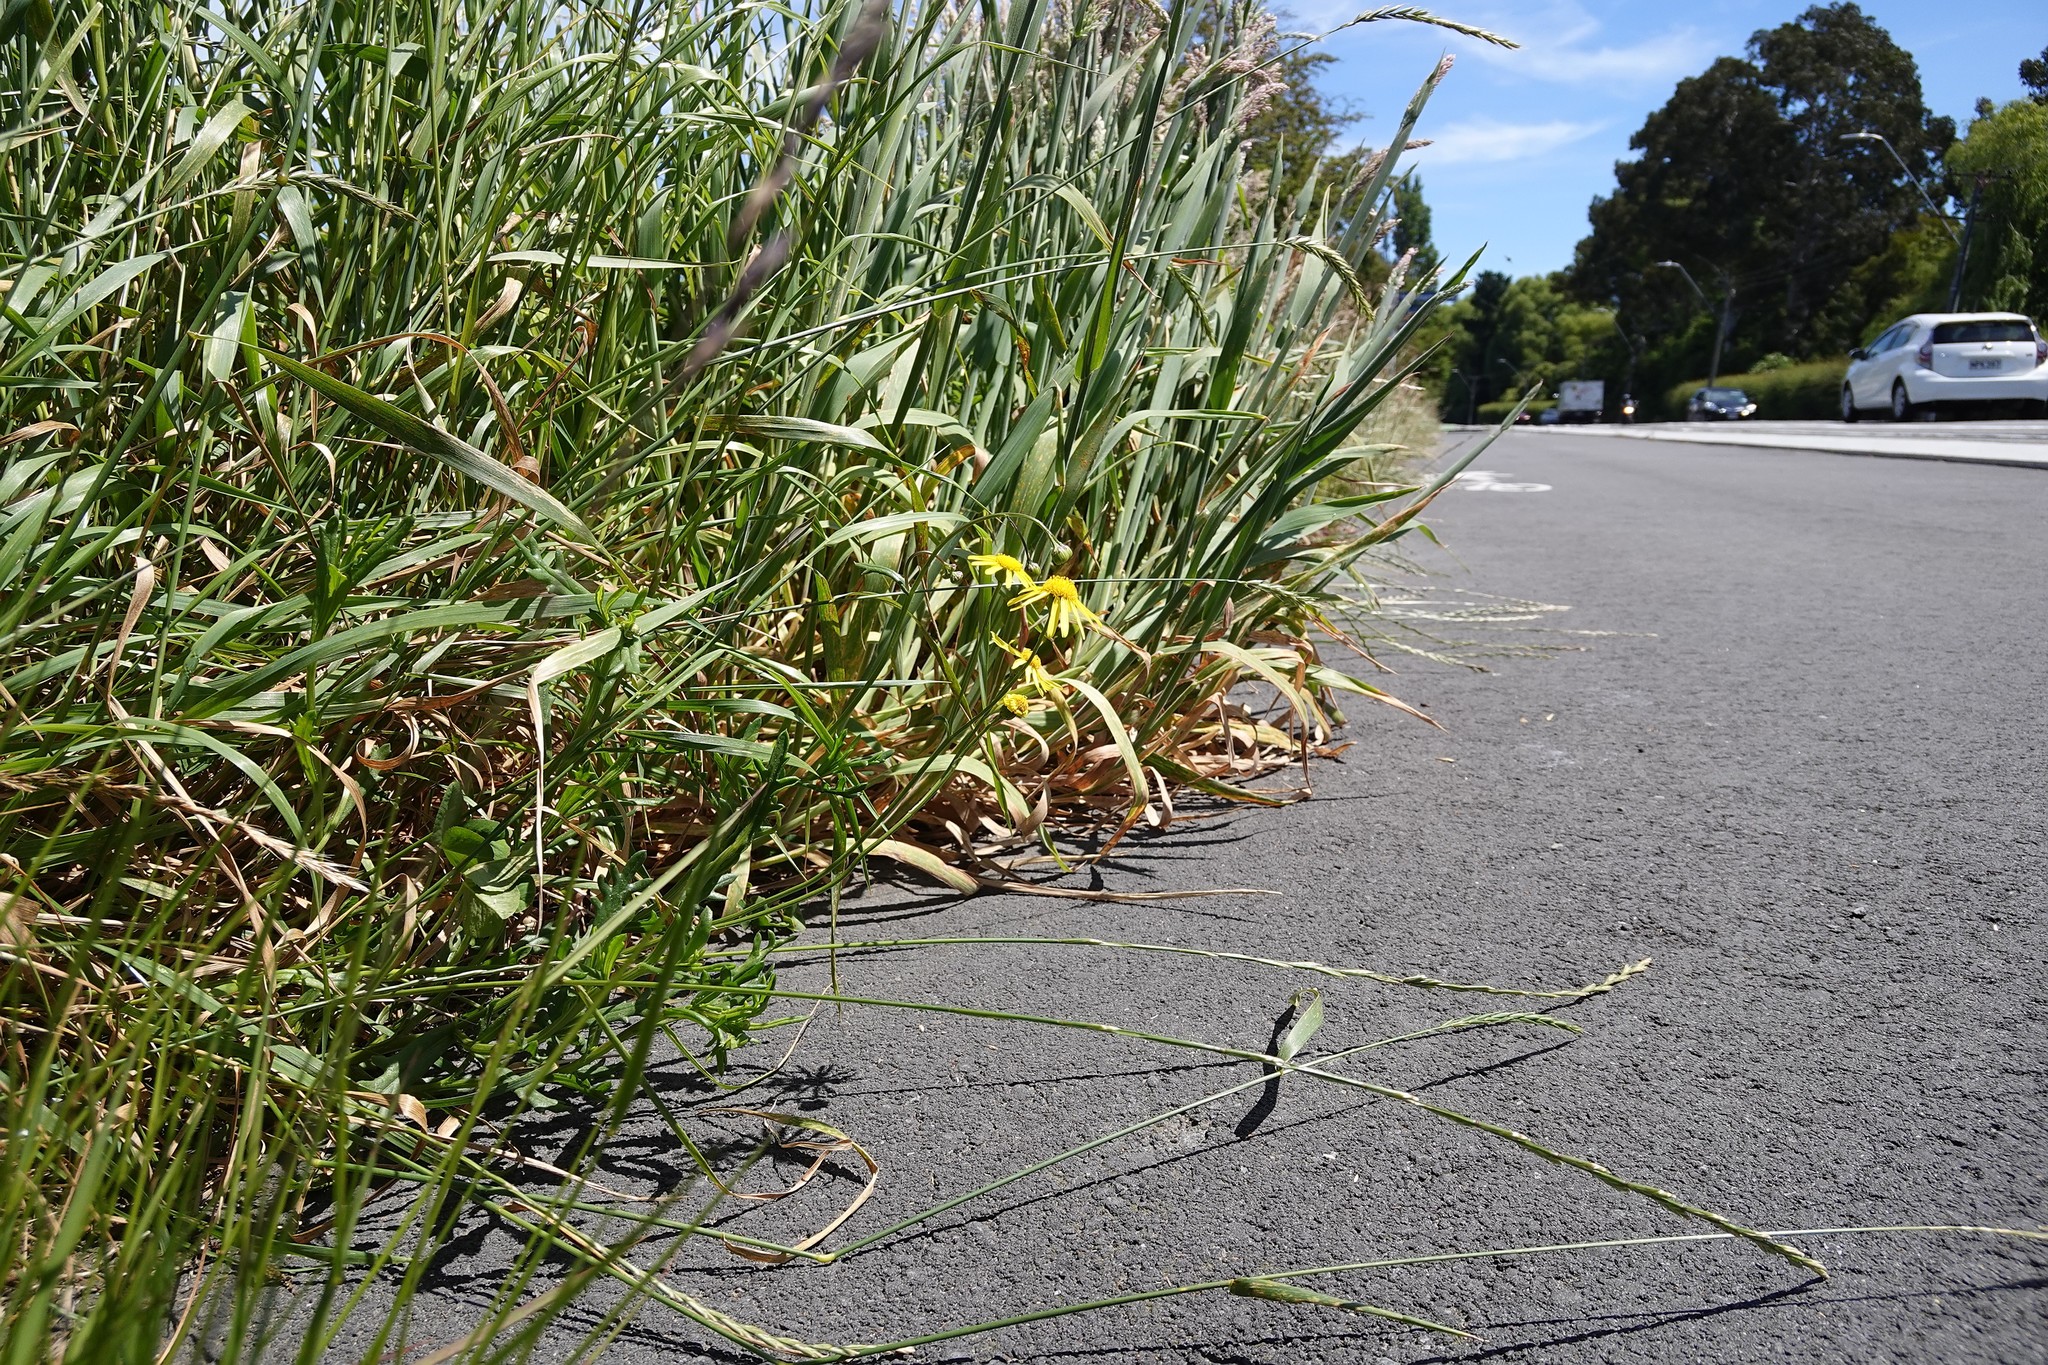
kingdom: Plantae
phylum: Tracheophyta
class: Magnoliopsida
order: Asterales
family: Asteraceae
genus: Senecio
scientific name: Senecio skirrhodon
